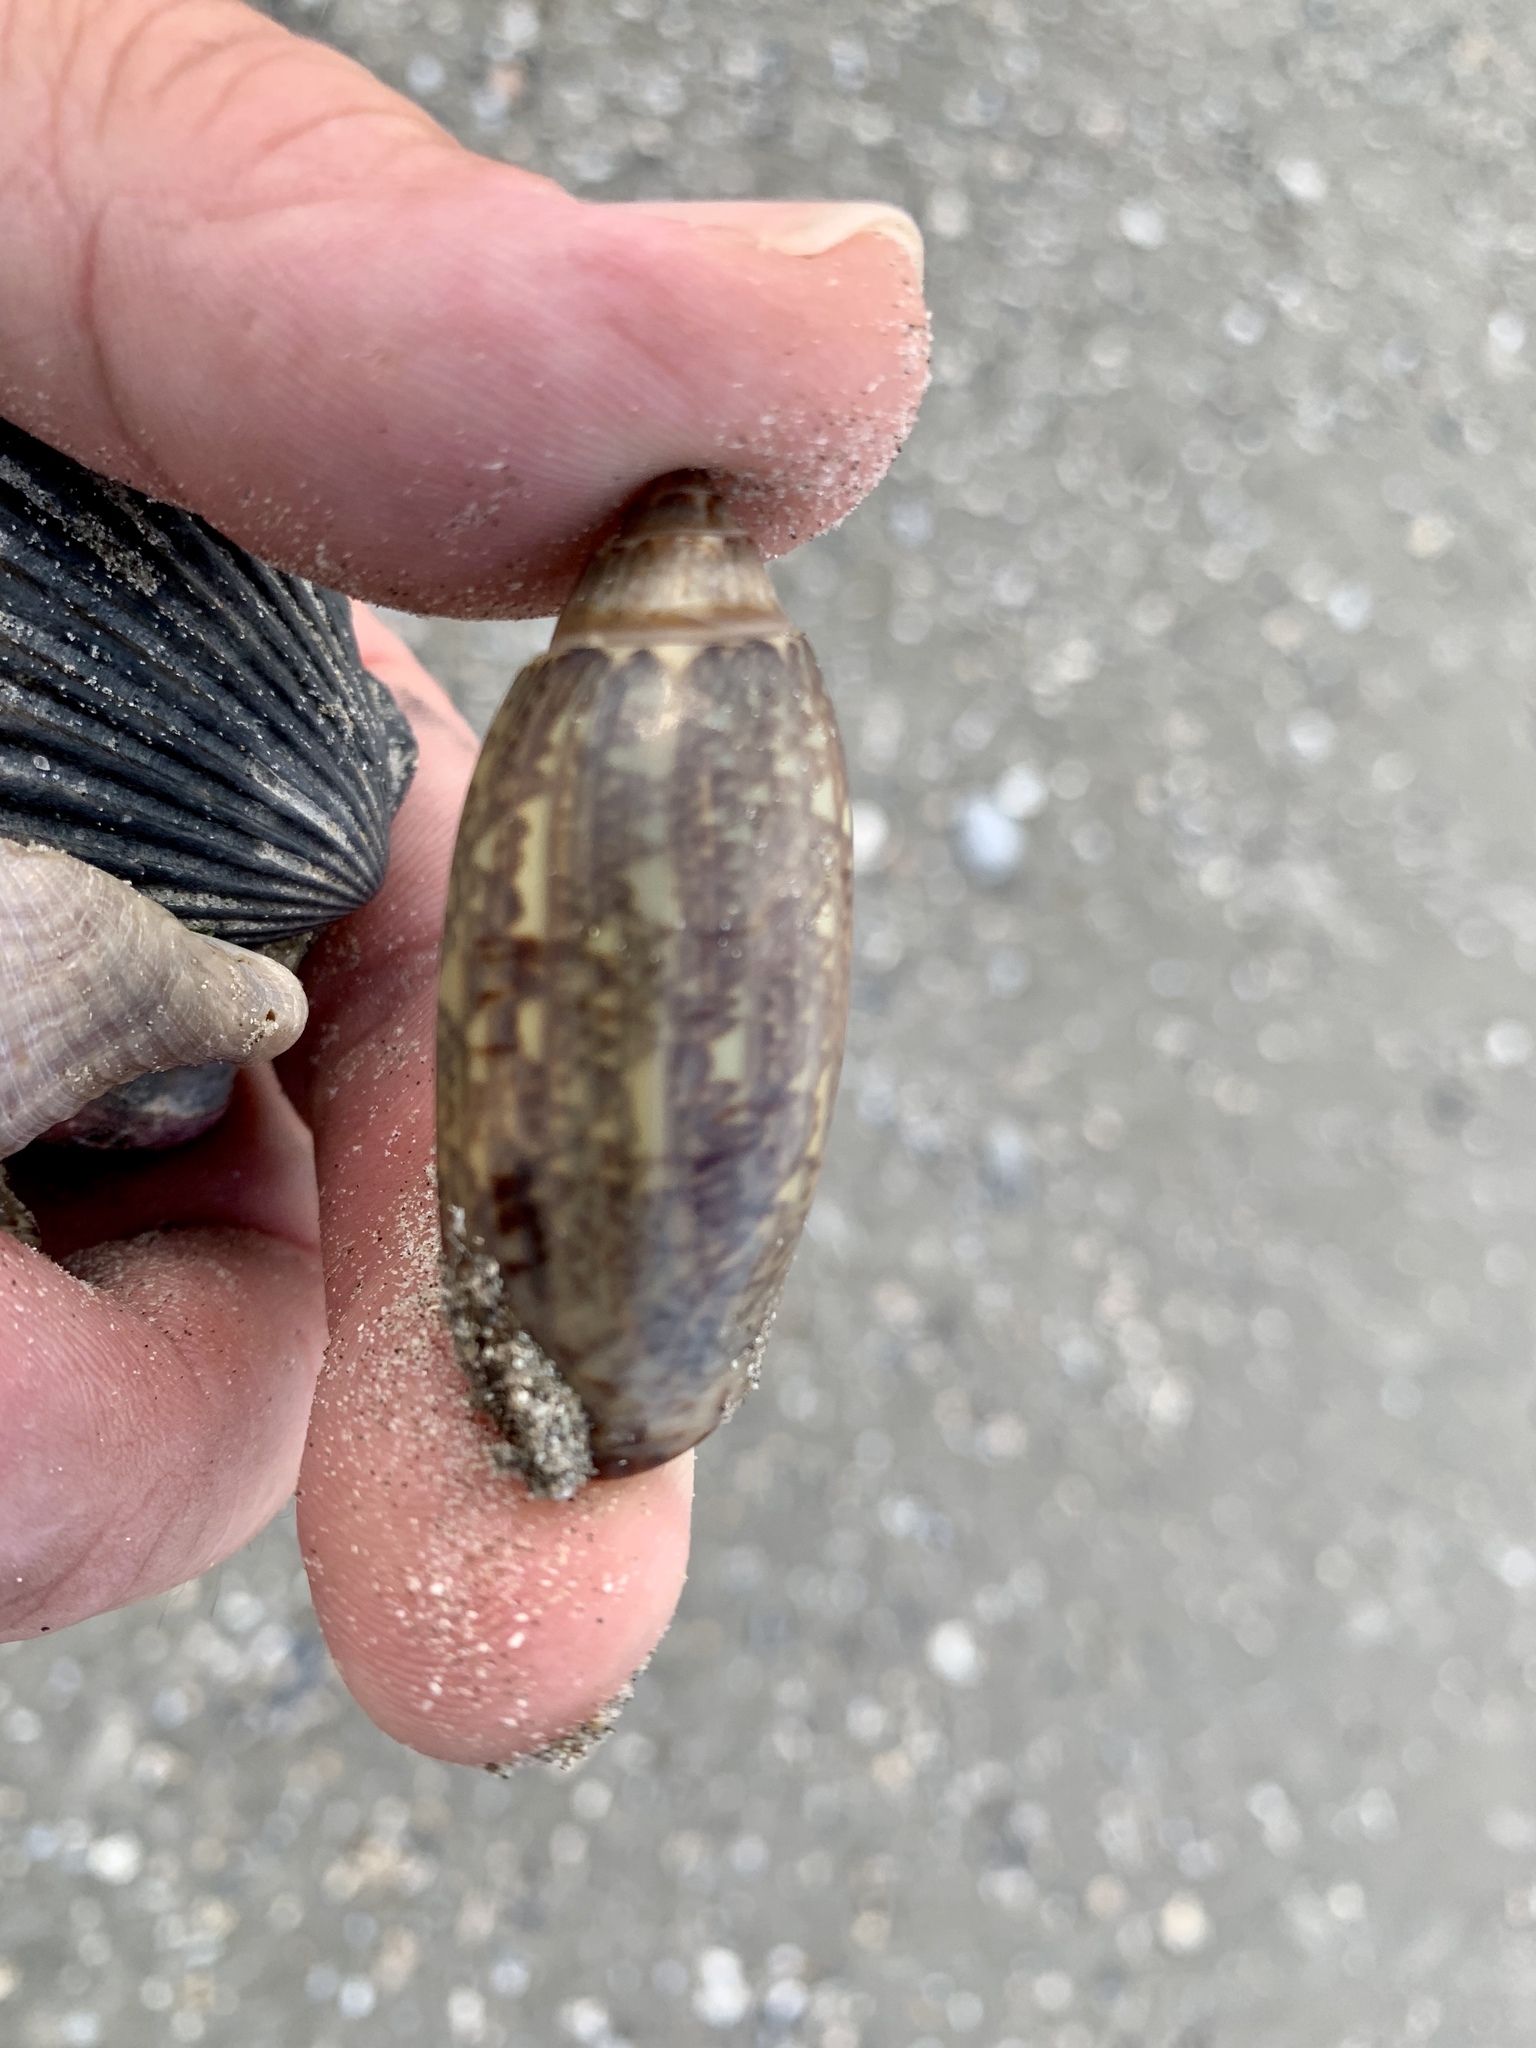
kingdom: Animalia
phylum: Mollusca
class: Gastropoda
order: Neogastropoda
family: Olividae
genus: Oliva
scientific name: Oliva sayana
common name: Lettered olive
